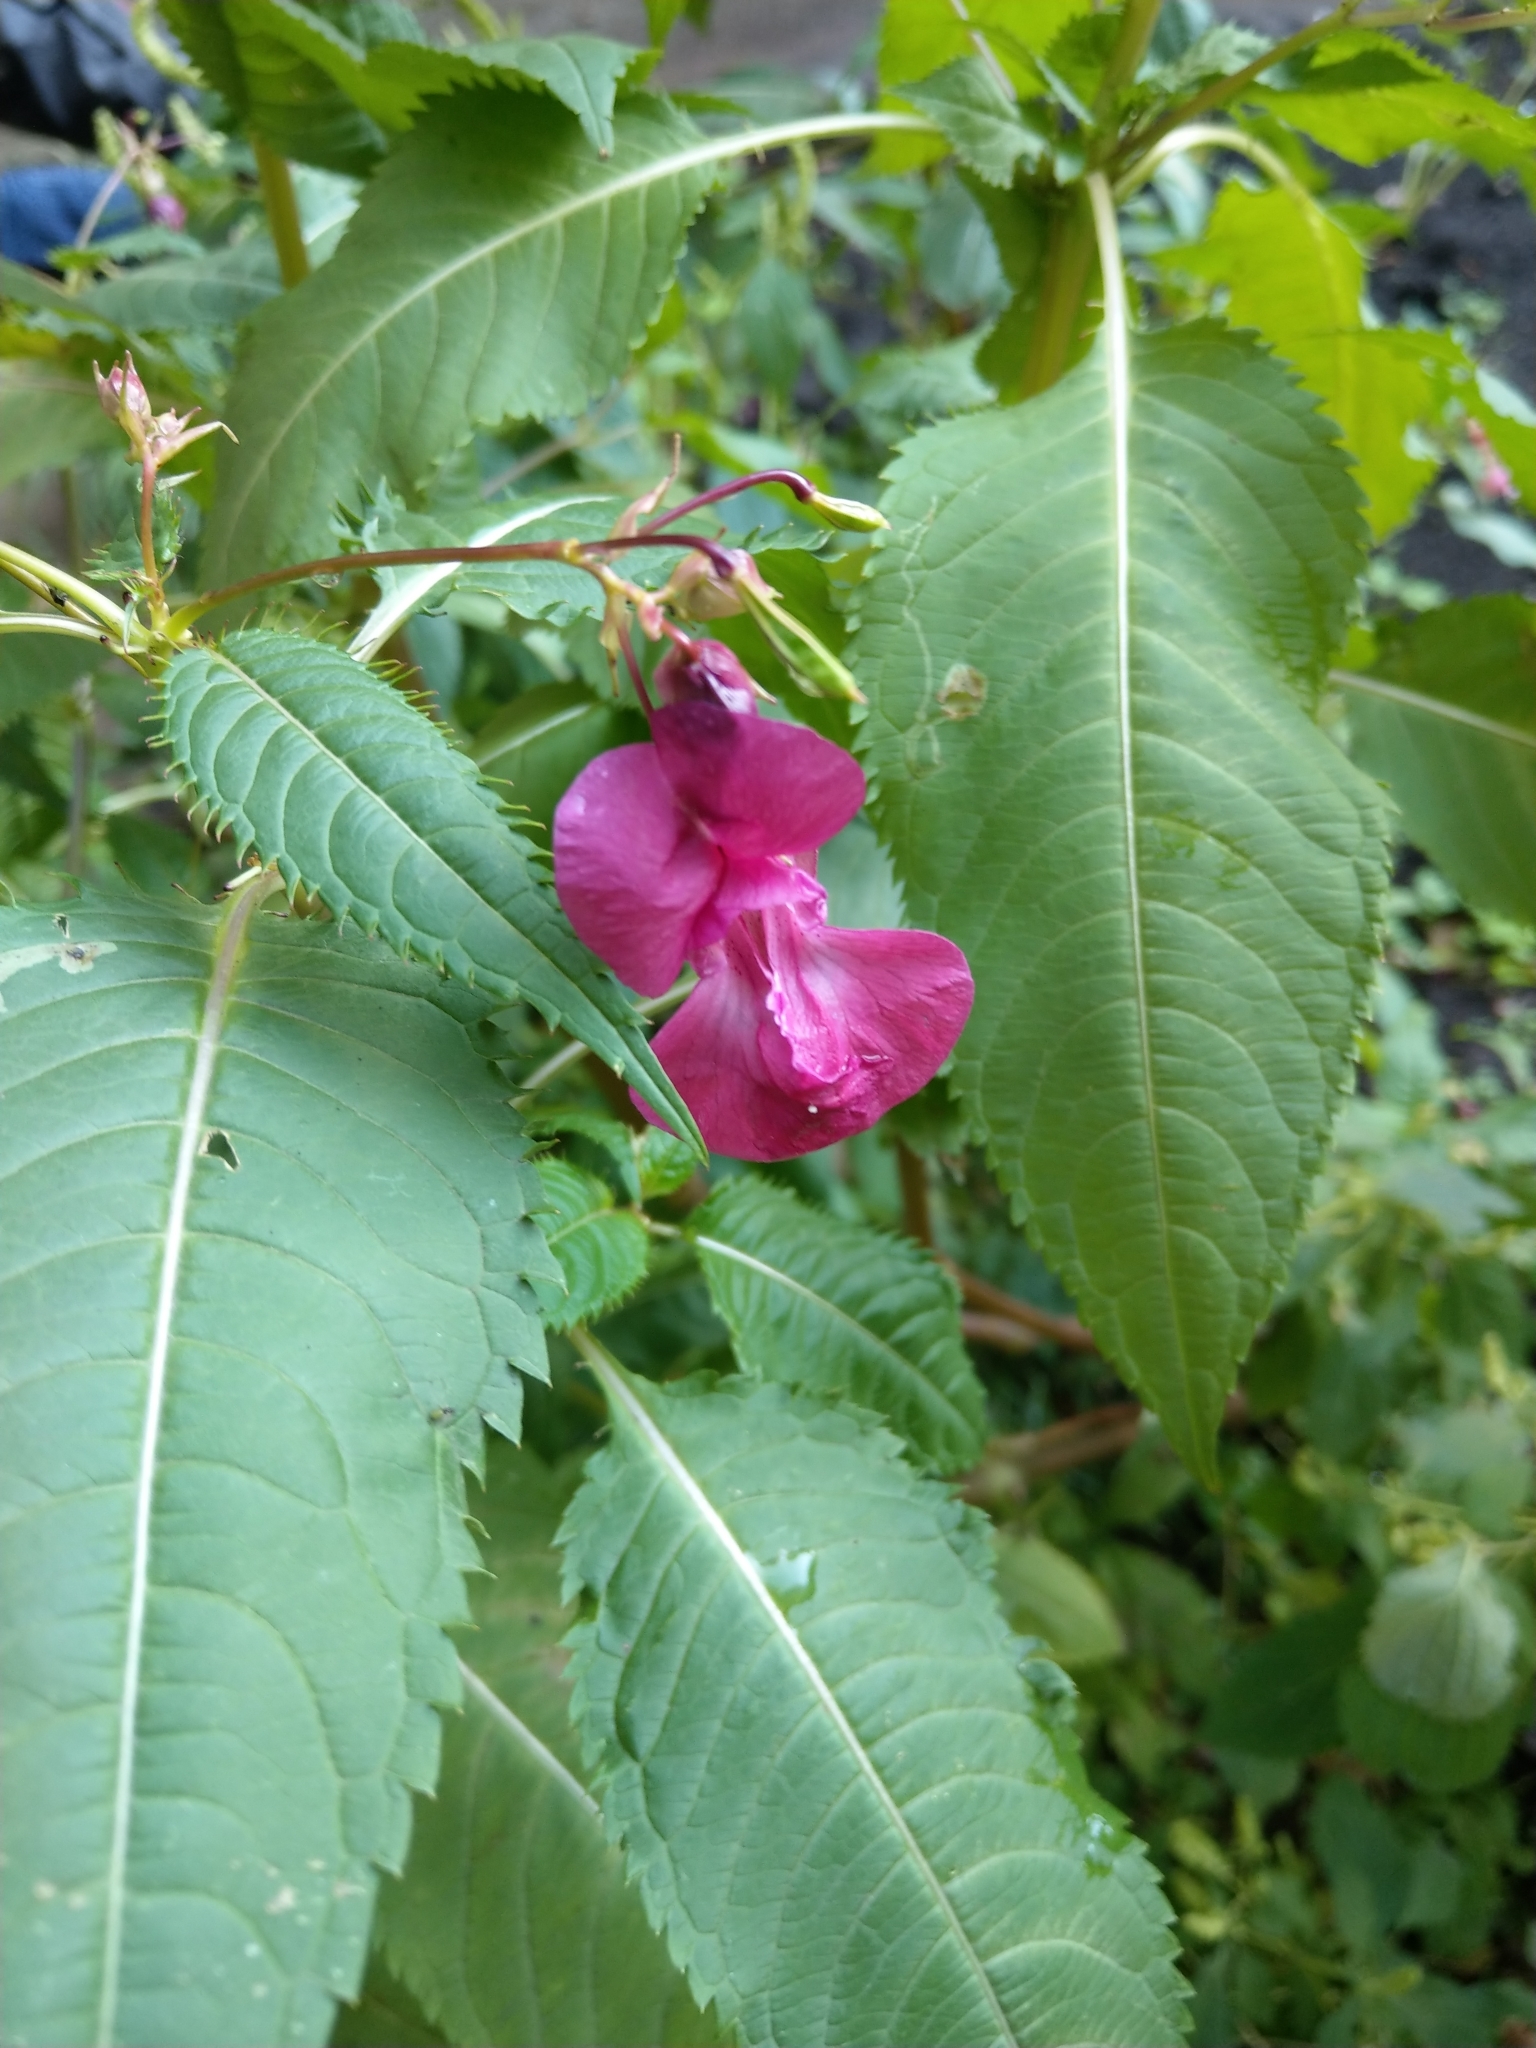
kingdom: Plantae
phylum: Tracheophyta
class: Magnoliopsida
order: Ericales
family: Balsaminaceae
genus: Impatiens
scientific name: Impatiens glandulifera
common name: Himalayan balsam
